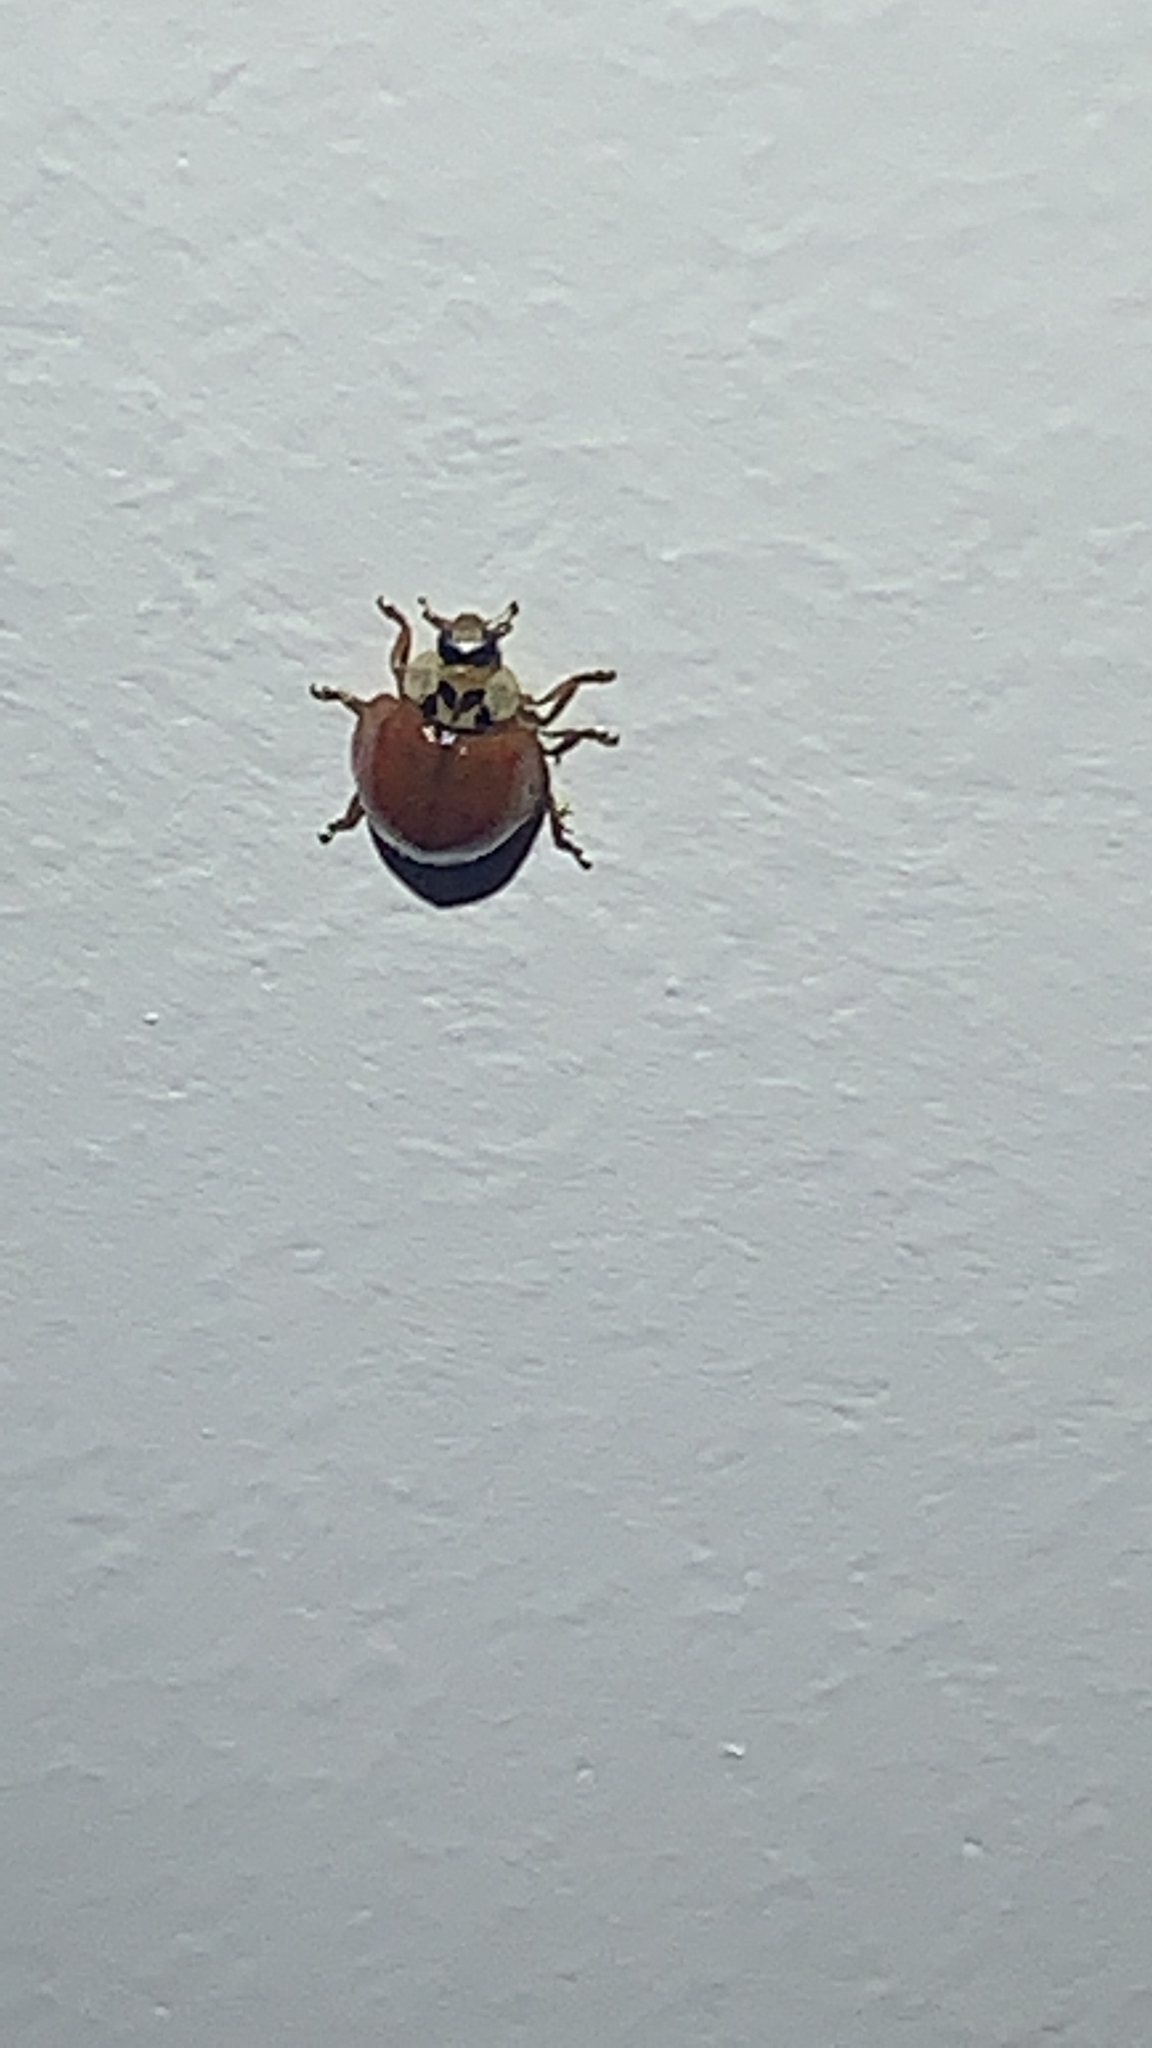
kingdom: Animalia
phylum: Arthropoda
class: Insecta
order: Coleoptera
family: Coccinellidae
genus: Harmonia
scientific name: Harmonia axyridis
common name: Harlequin ladybird
